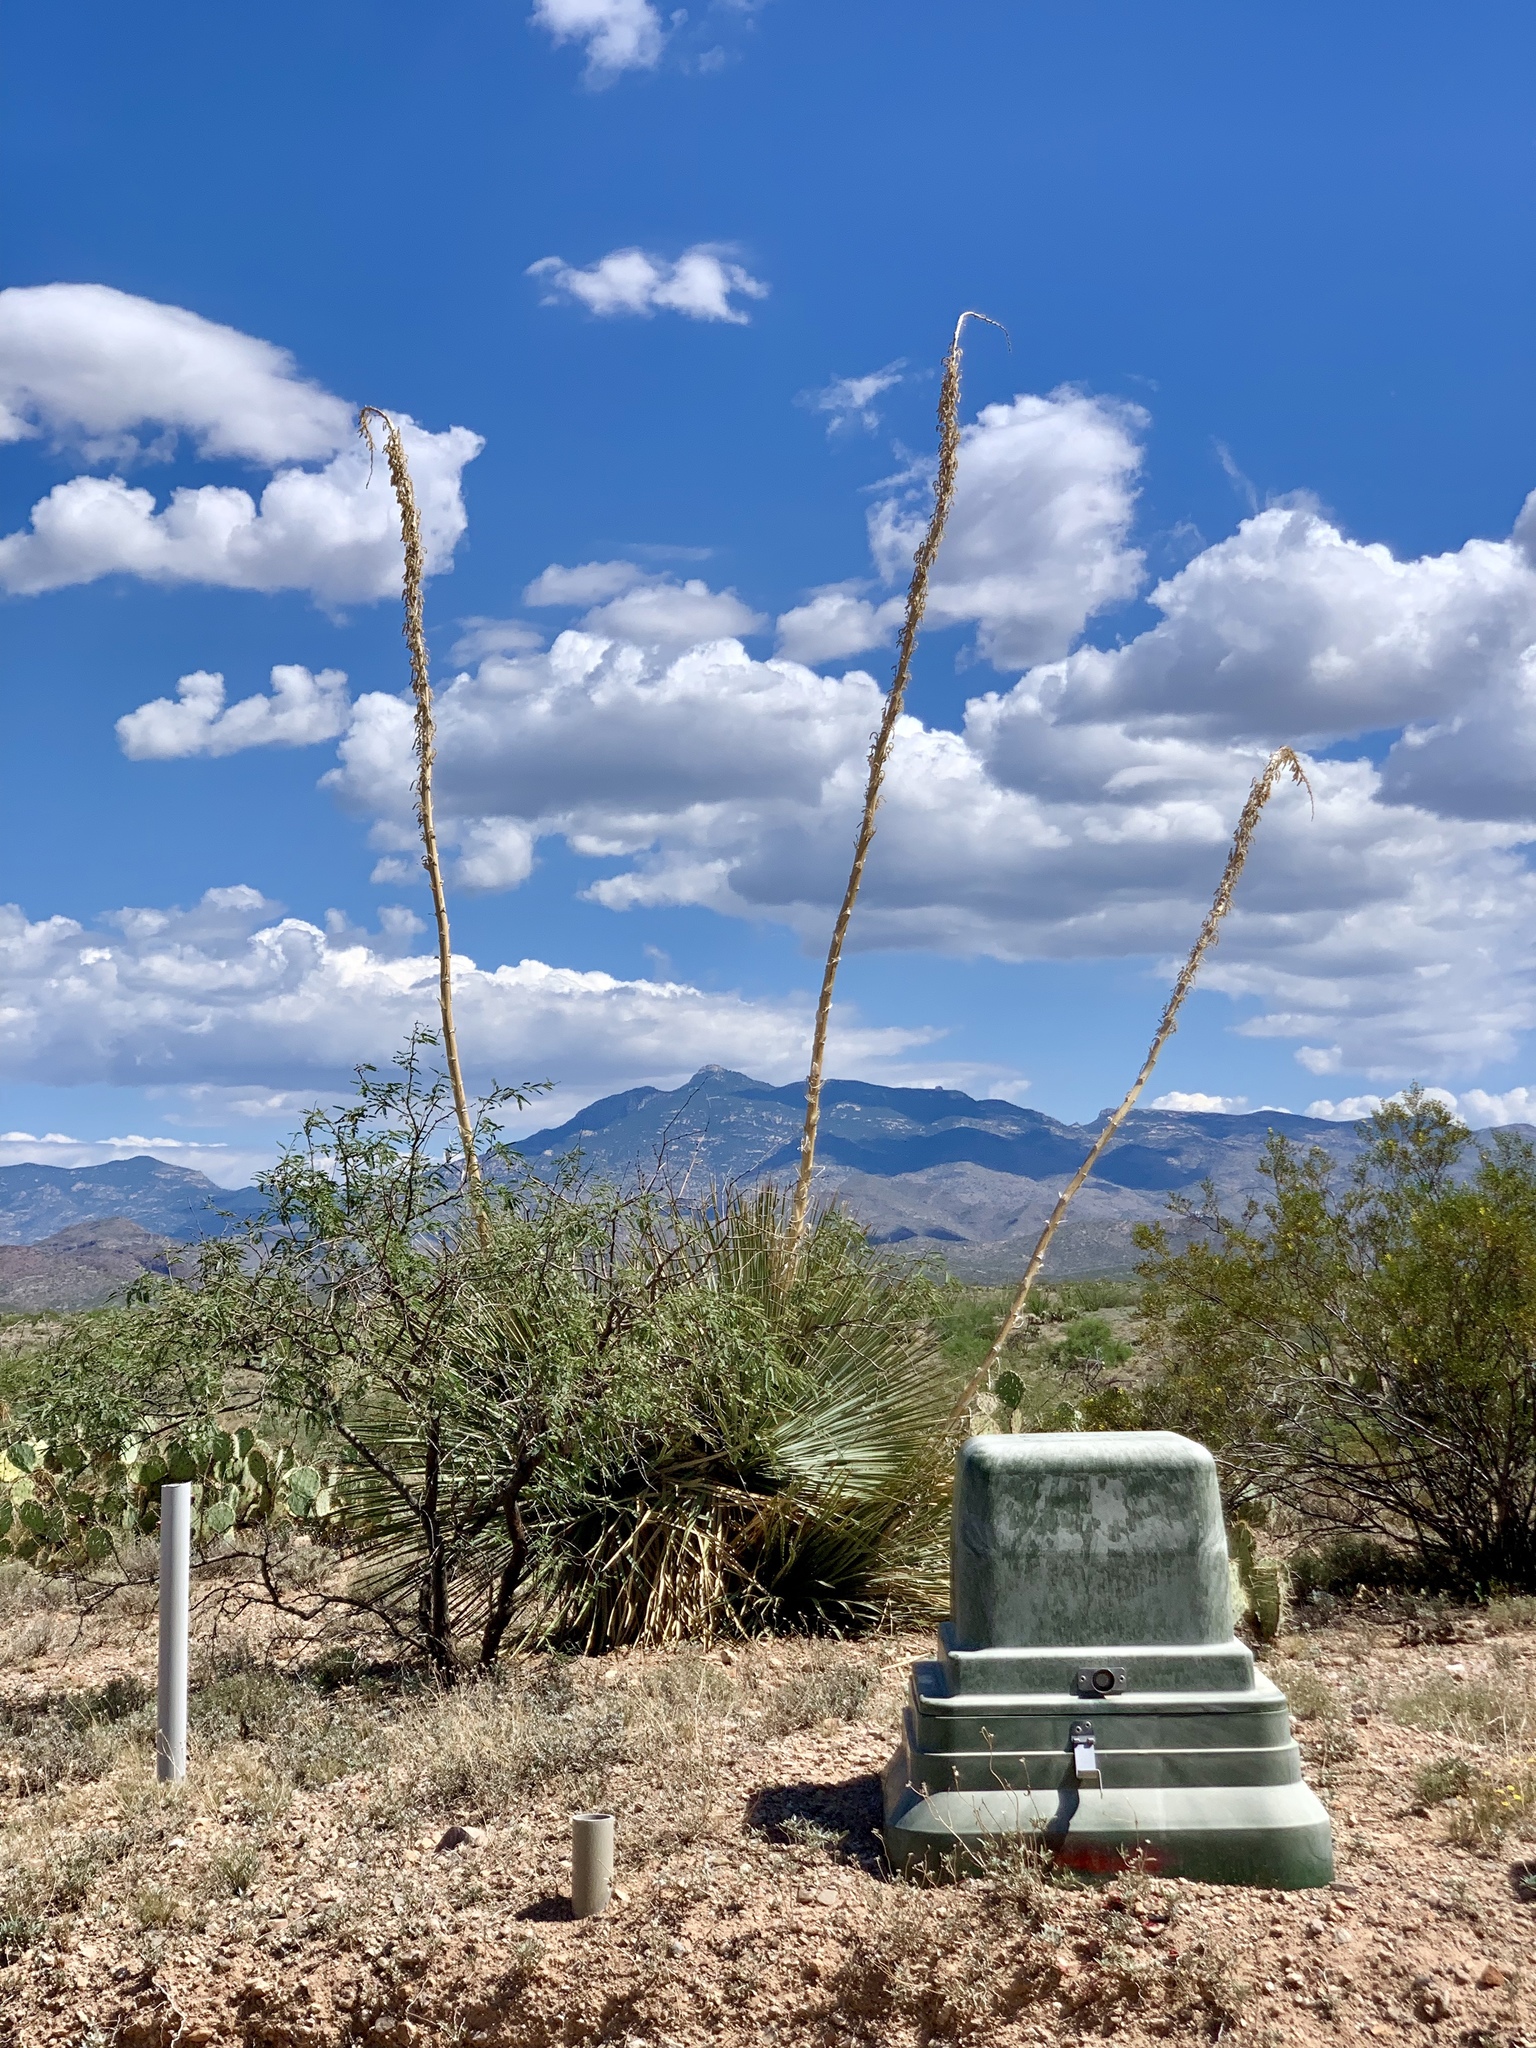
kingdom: Plantae
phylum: Tracheophyta
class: Liliopsida
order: Asparagales
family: Asparagaceae
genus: Dasylirion
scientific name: Dasylirion wheeleri
